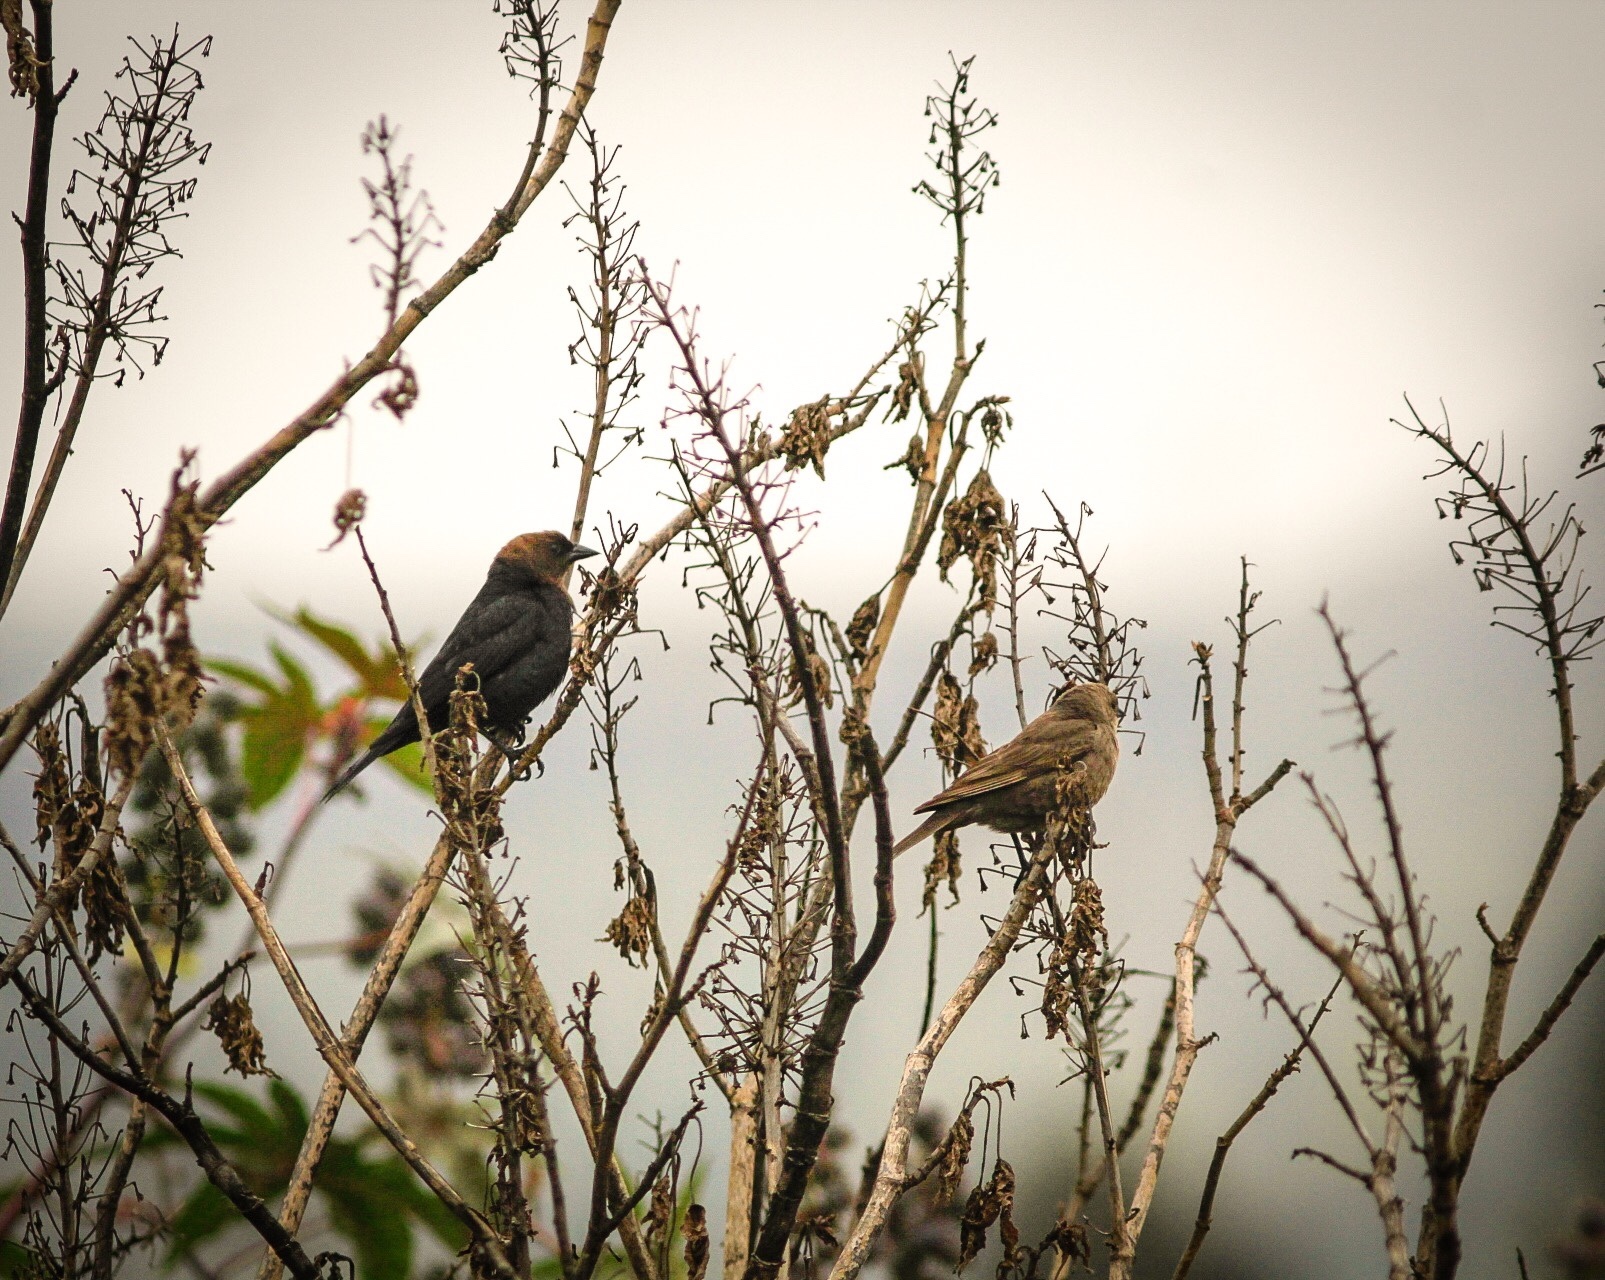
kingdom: Animalia
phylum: Chordata
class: Aves
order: Passeriformes
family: Icteridae
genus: Molothrus
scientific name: Molothrus ater
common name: Brown-headed cowbird
